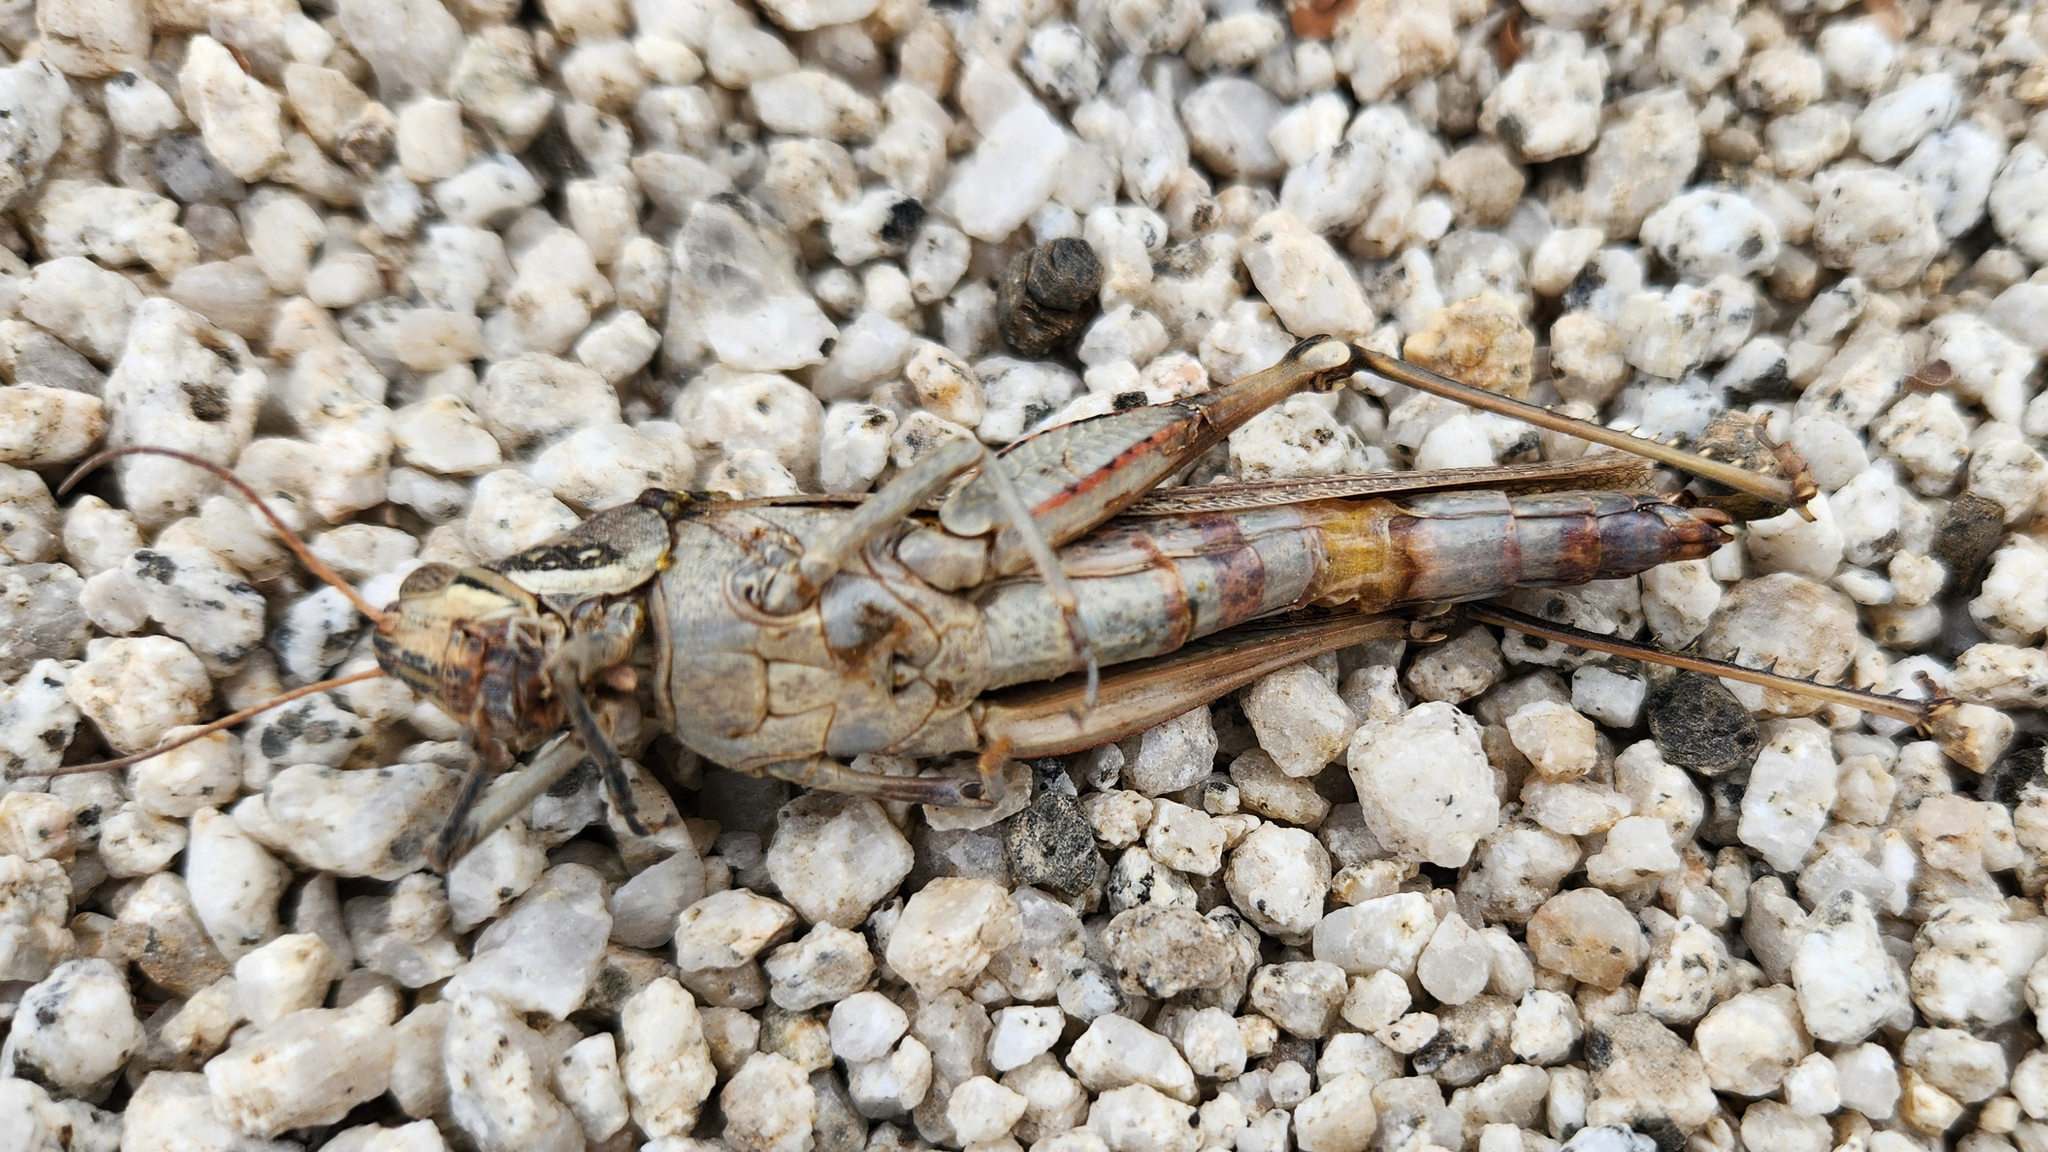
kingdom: Animalia
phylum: Arthropoda
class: Insecta
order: Orthoptera
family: Acrididae
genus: Schistocerca
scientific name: Schistocerca nitens
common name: Vagrant grasshopper
